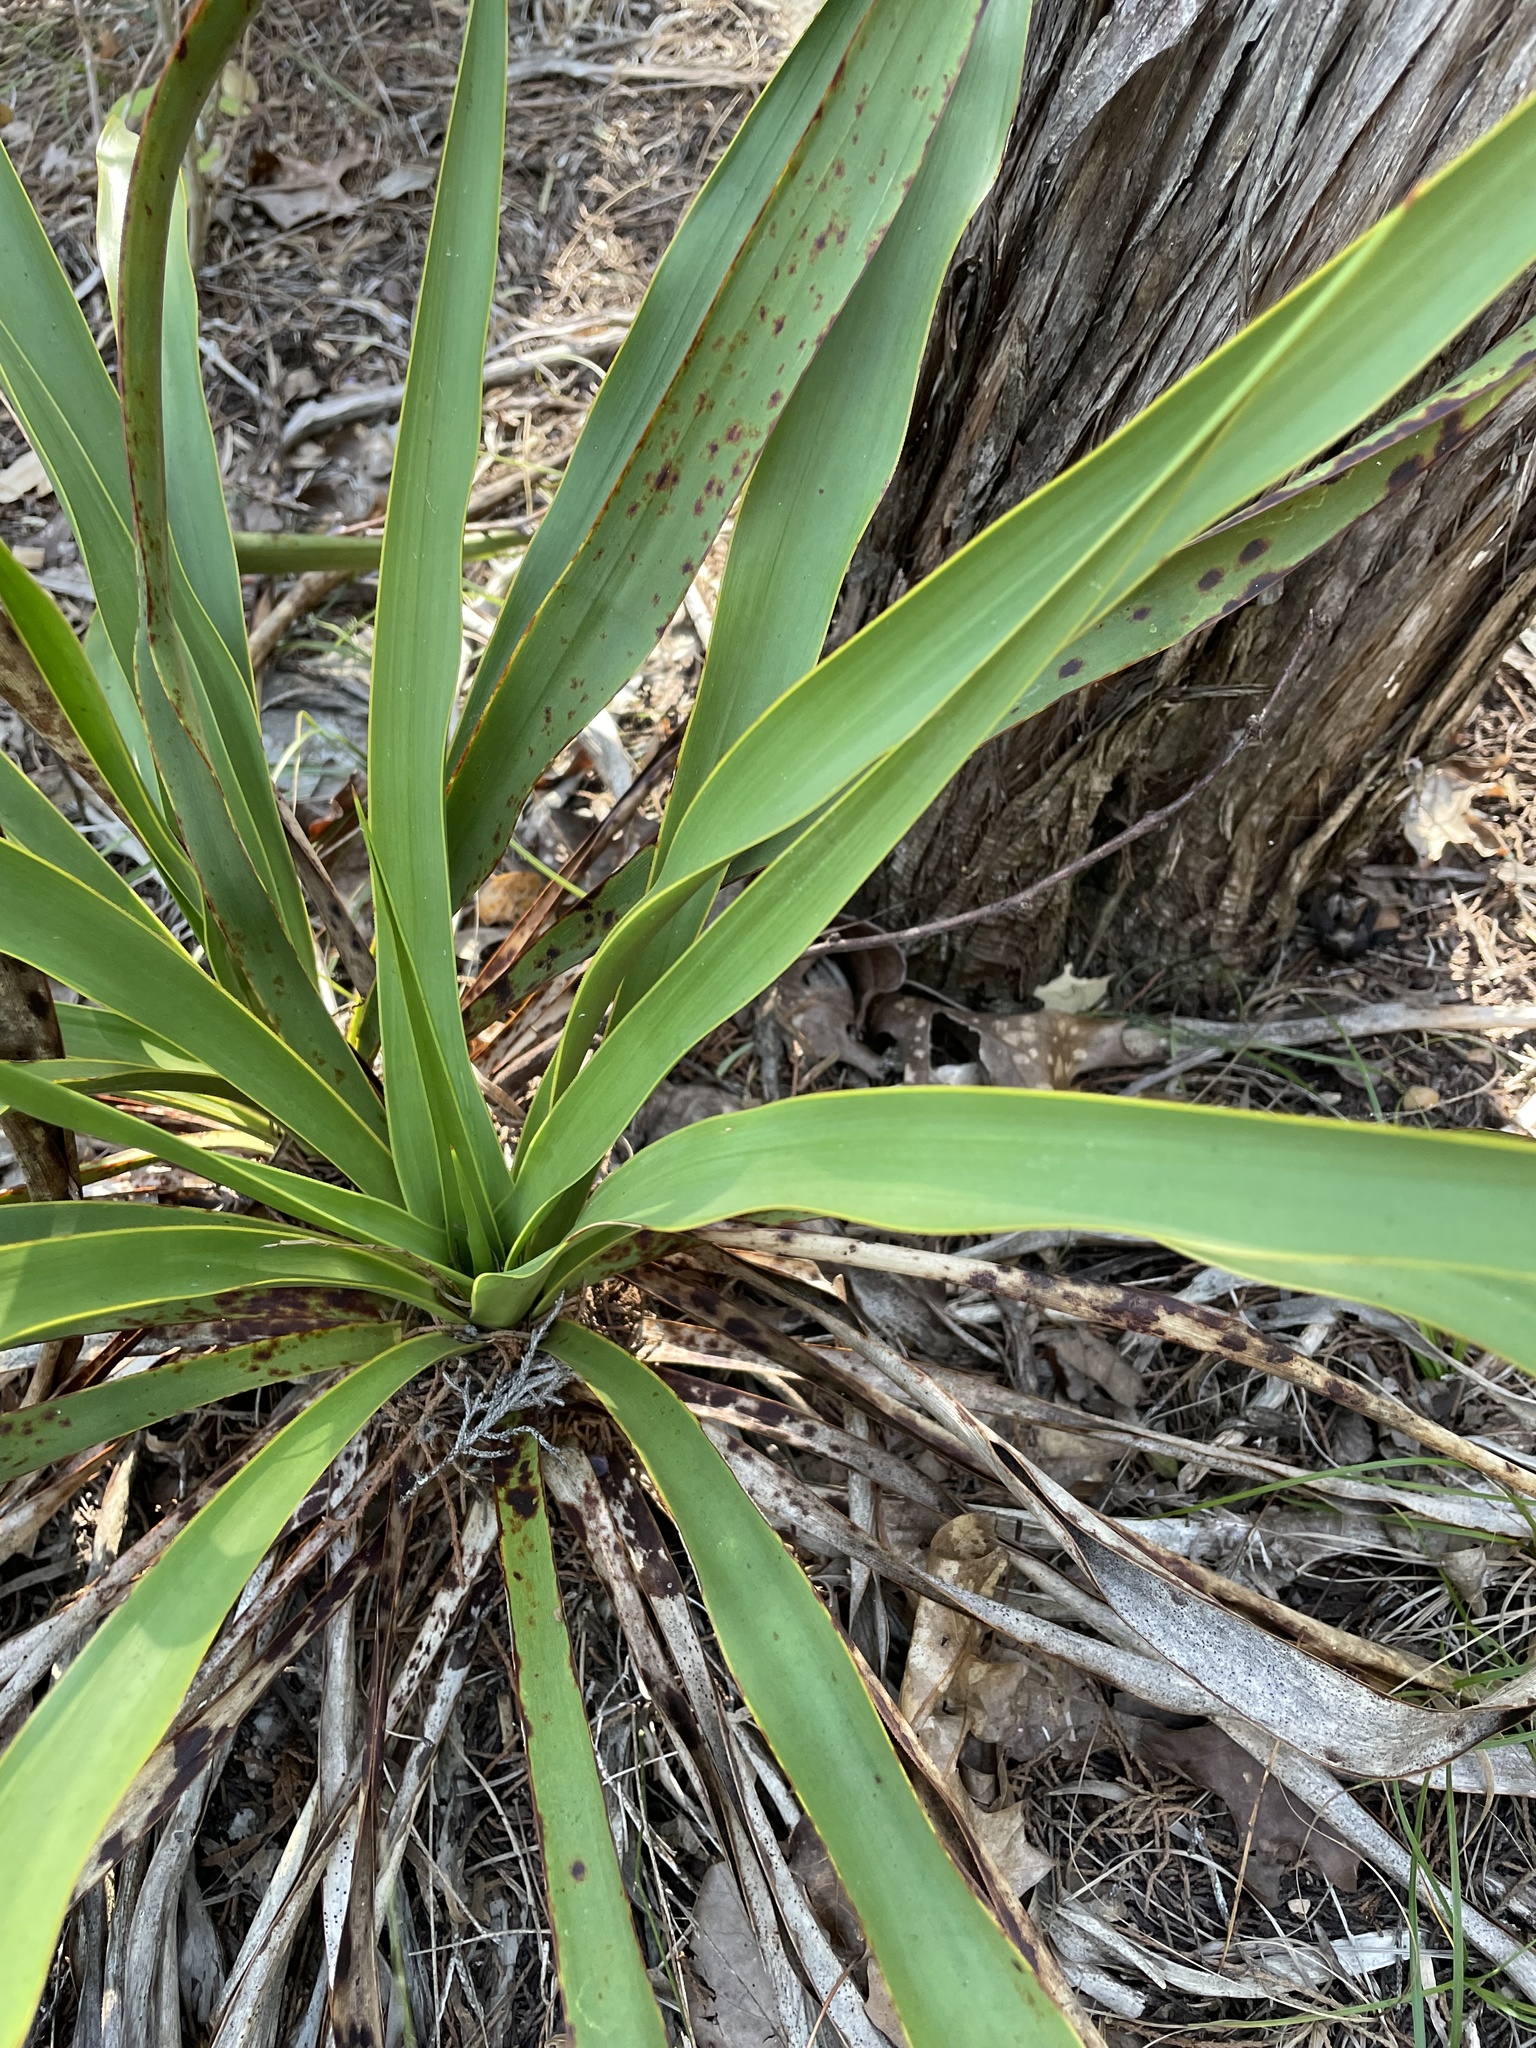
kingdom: Plantae
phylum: Tracheophyta
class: Liliopsida
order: Asparagales
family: Asparagaceae
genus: Yucca
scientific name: Yucca rupicola
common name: Twisted-leaf spanish-dagger
